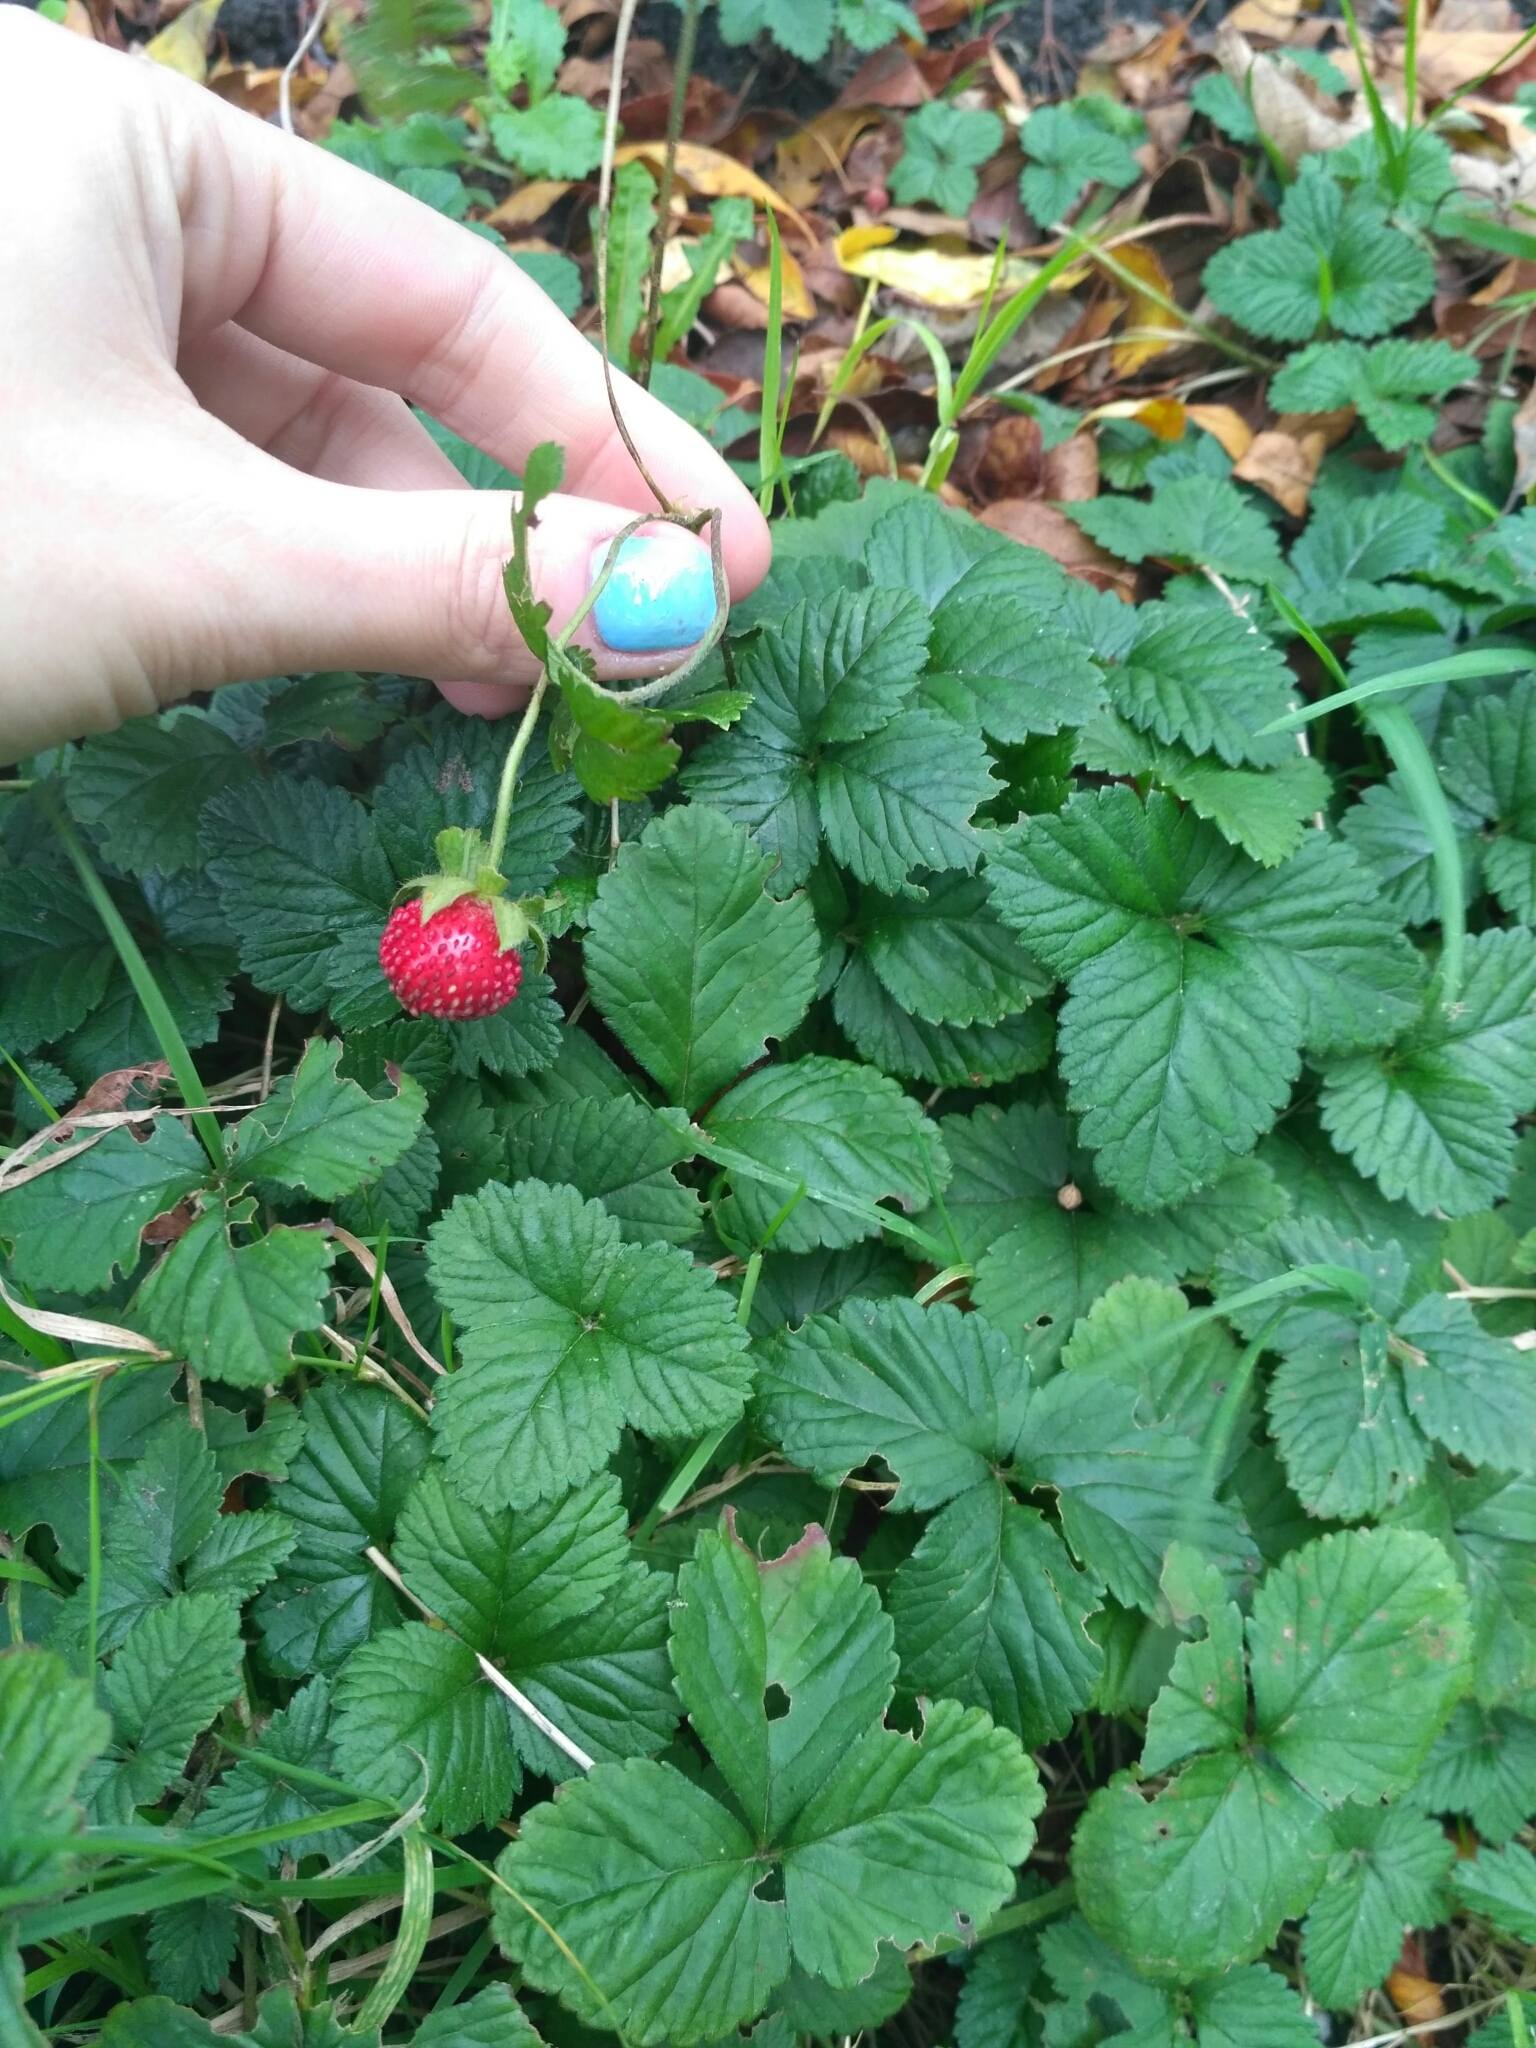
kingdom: Plantae
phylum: Tracheophyta
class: Magnoliopsida
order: Rosales
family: Rosaceae
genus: Potentilla
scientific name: Potentilla indica
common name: Yellow-flowered strawberry
